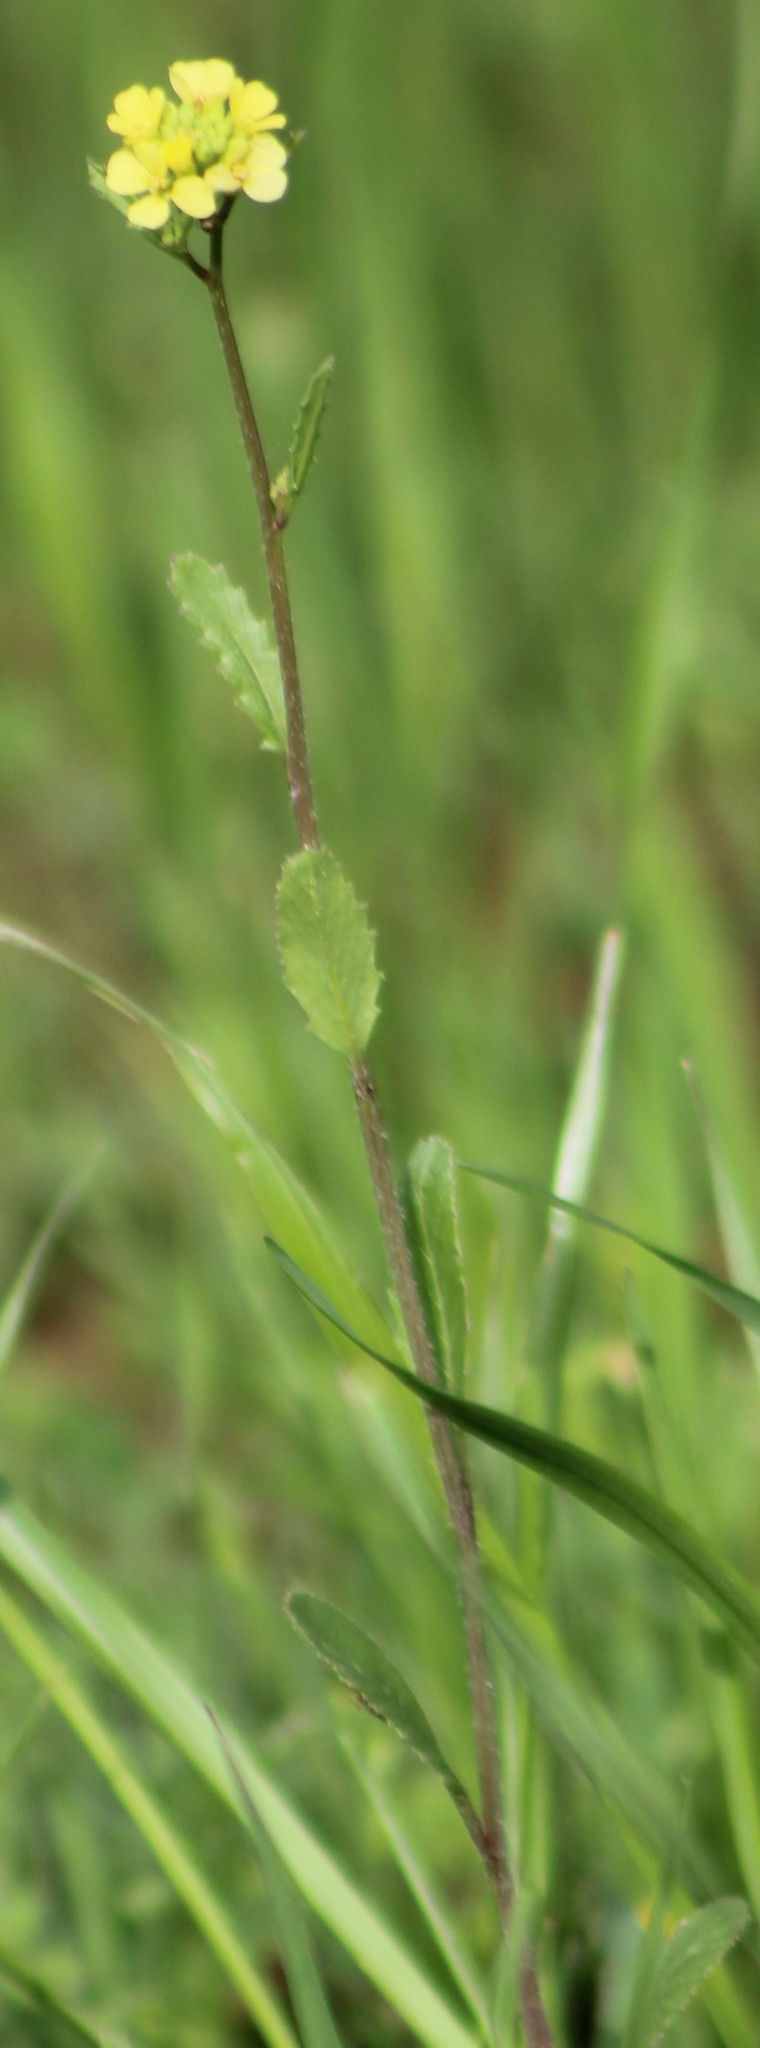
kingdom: Plantae
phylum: Tracheophyta
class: Magnoliopsida
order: Brassicales
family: Brassicaceae
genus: Rapistrum
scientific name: Rapistrum rugosum
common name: Annual bastardcabbage
